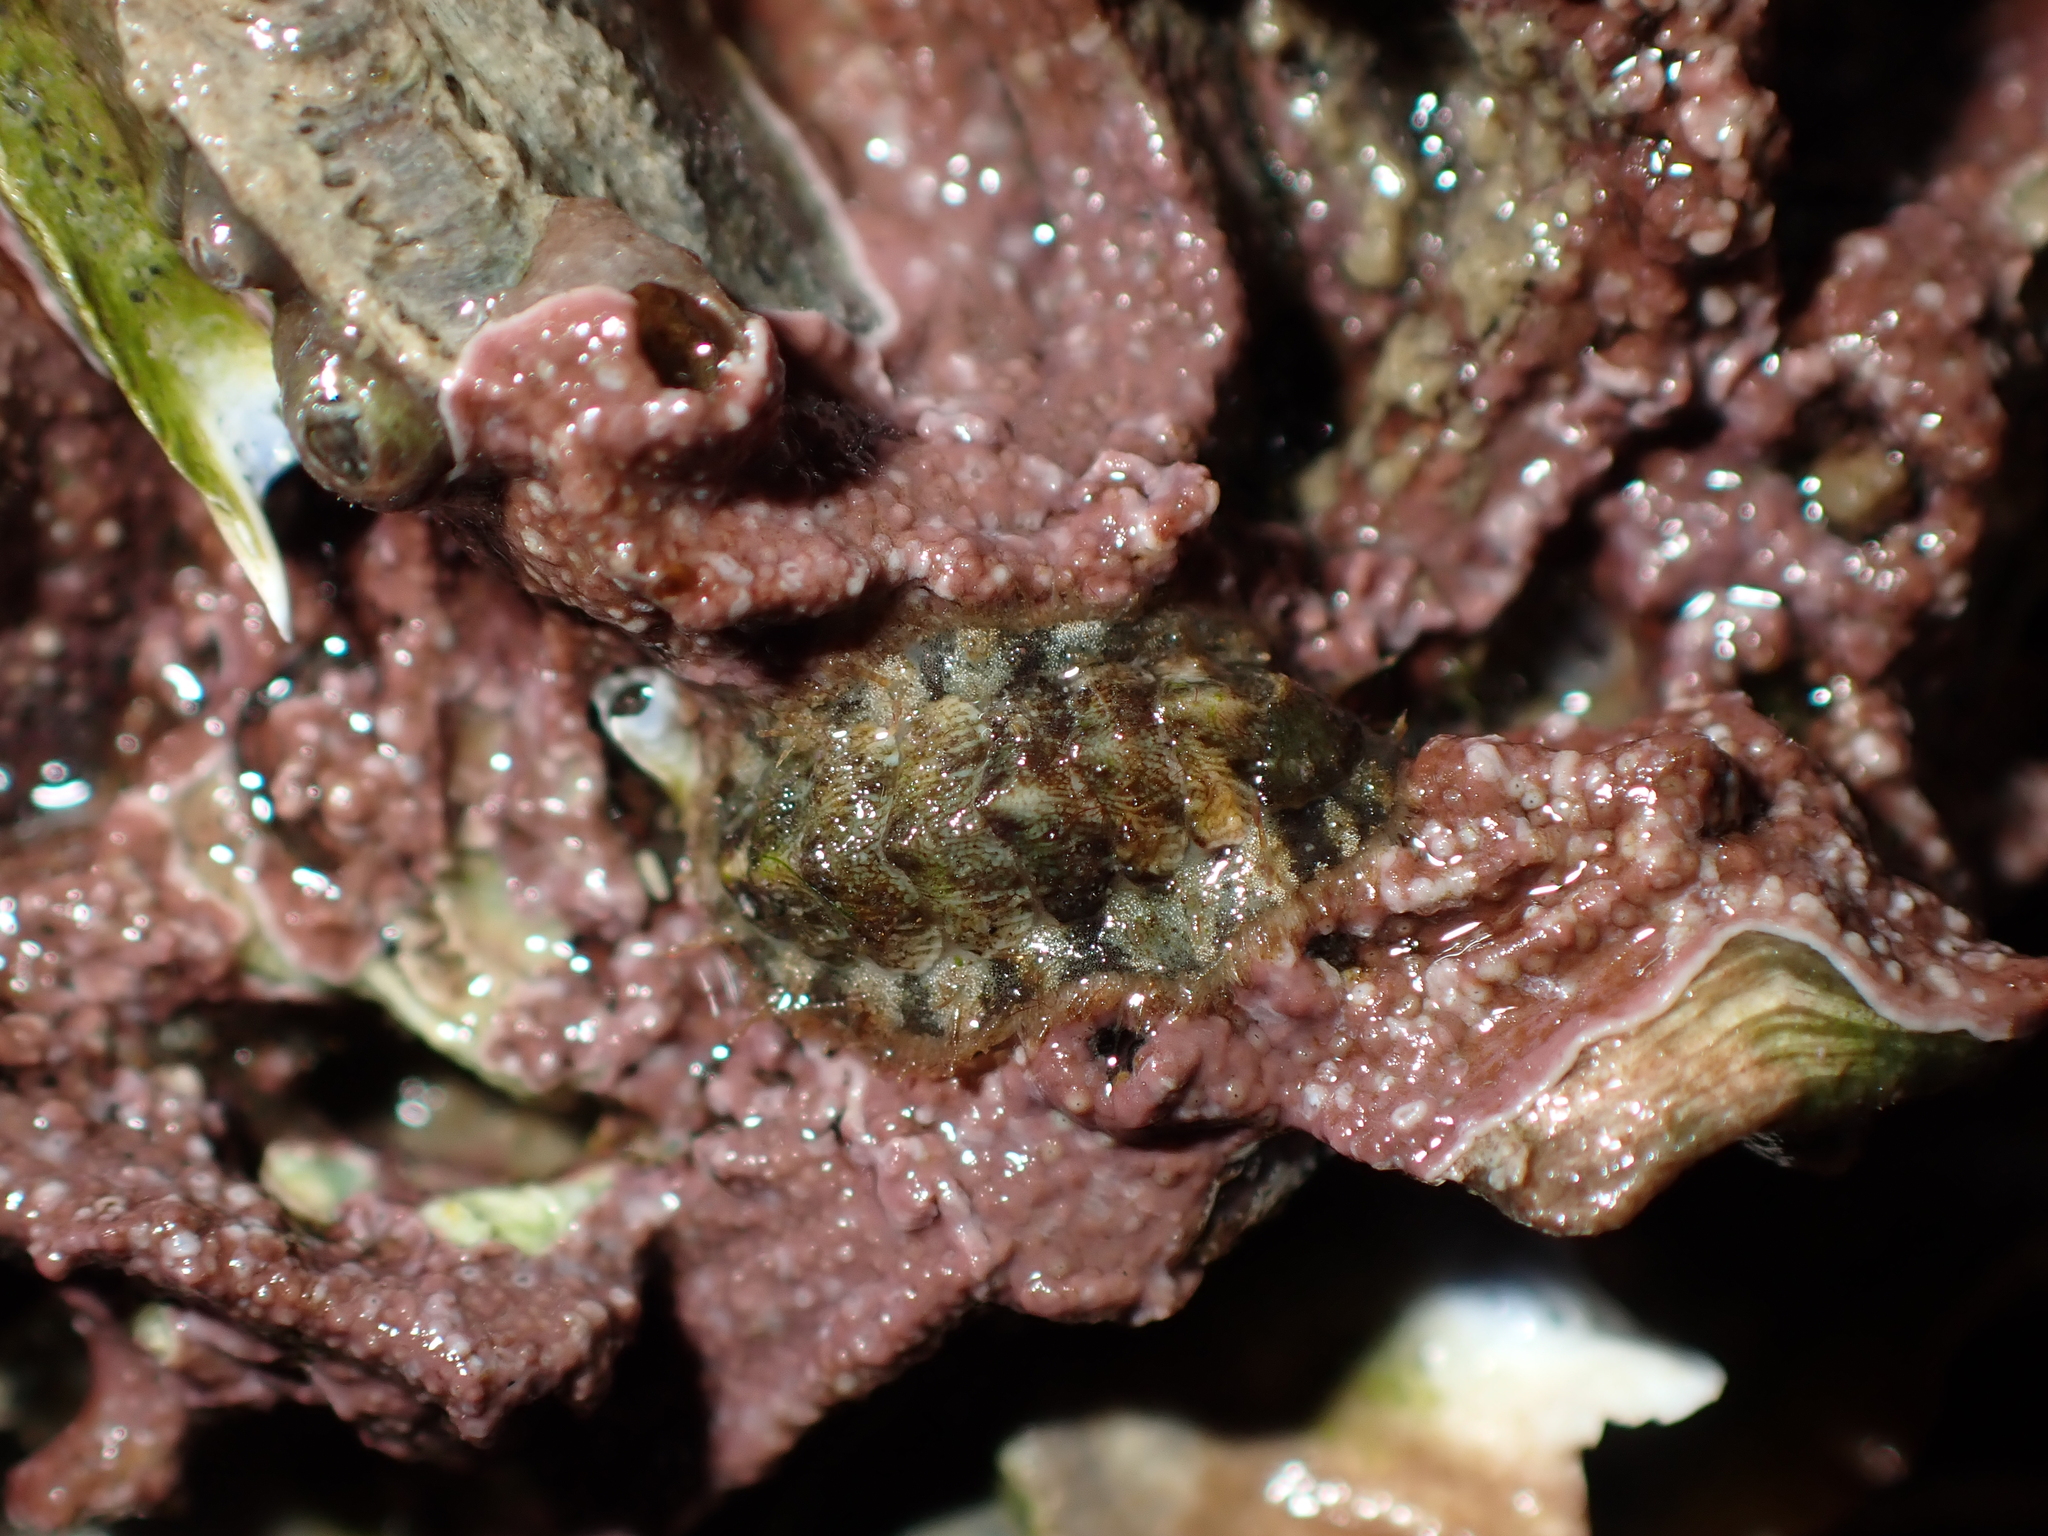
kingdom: Animalia
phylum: Mollusca
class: Polyplacophora
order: Chitonida
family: Mopaliidae
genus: Plaxiphora
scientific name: Plaxiphora caelata
